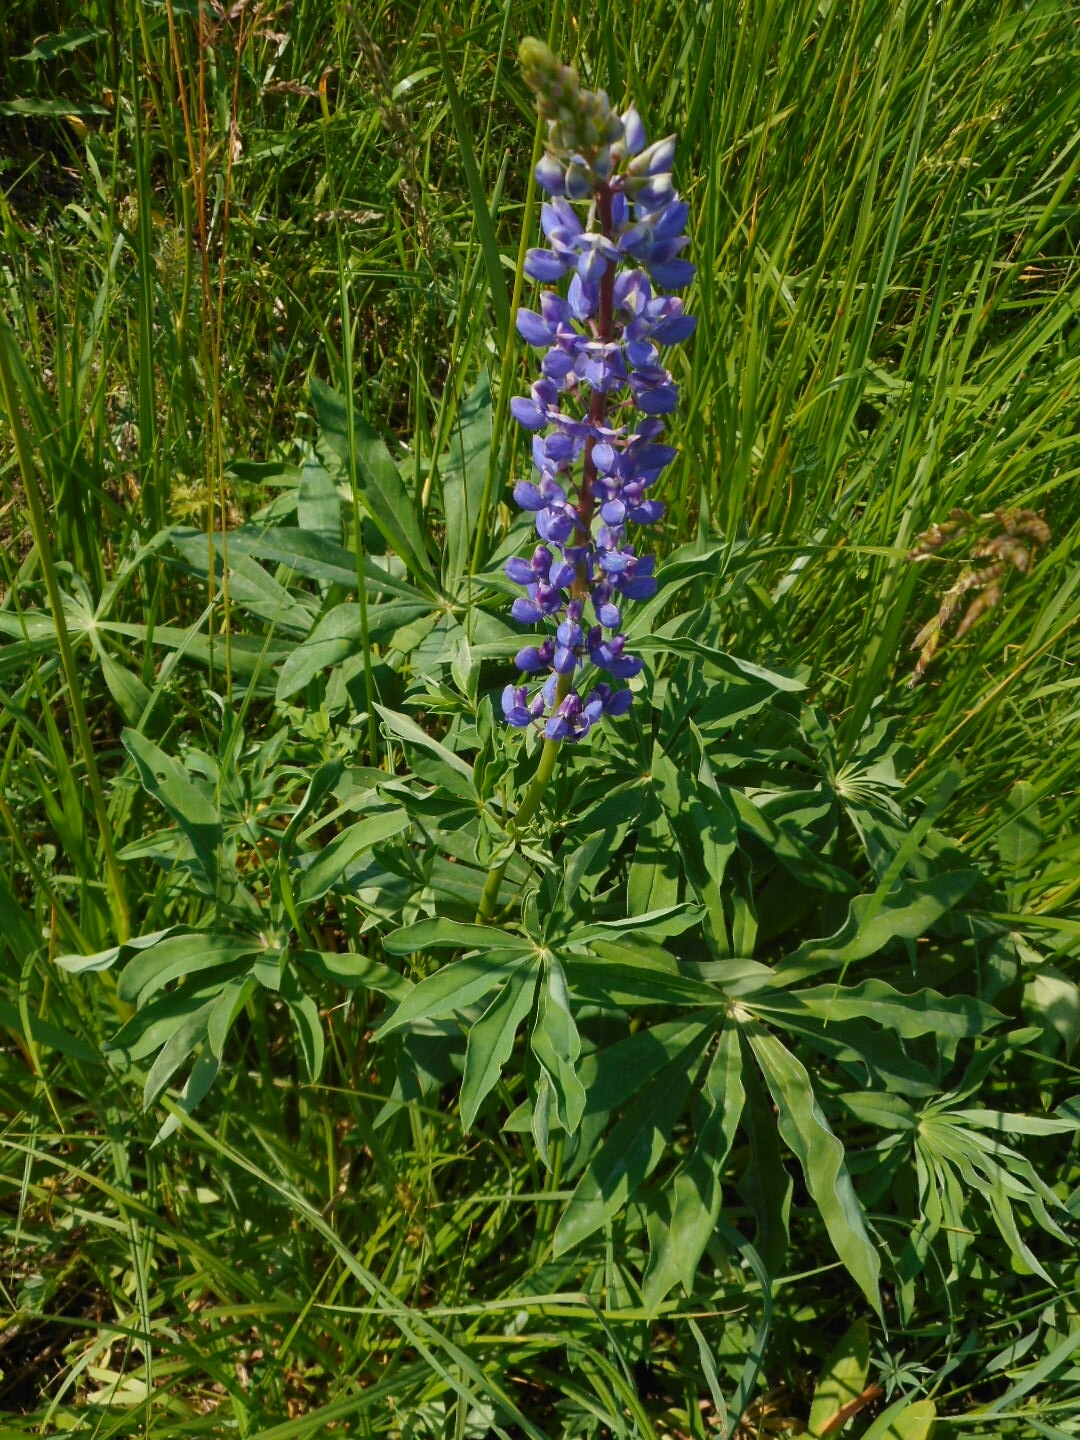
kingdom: Plantae
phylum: Tracheophyta
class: Magnoliopsida
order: Fabales
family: Fabaceae
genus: Lupinus
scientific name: Lupinus polyphyllus
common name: Garden lupin
